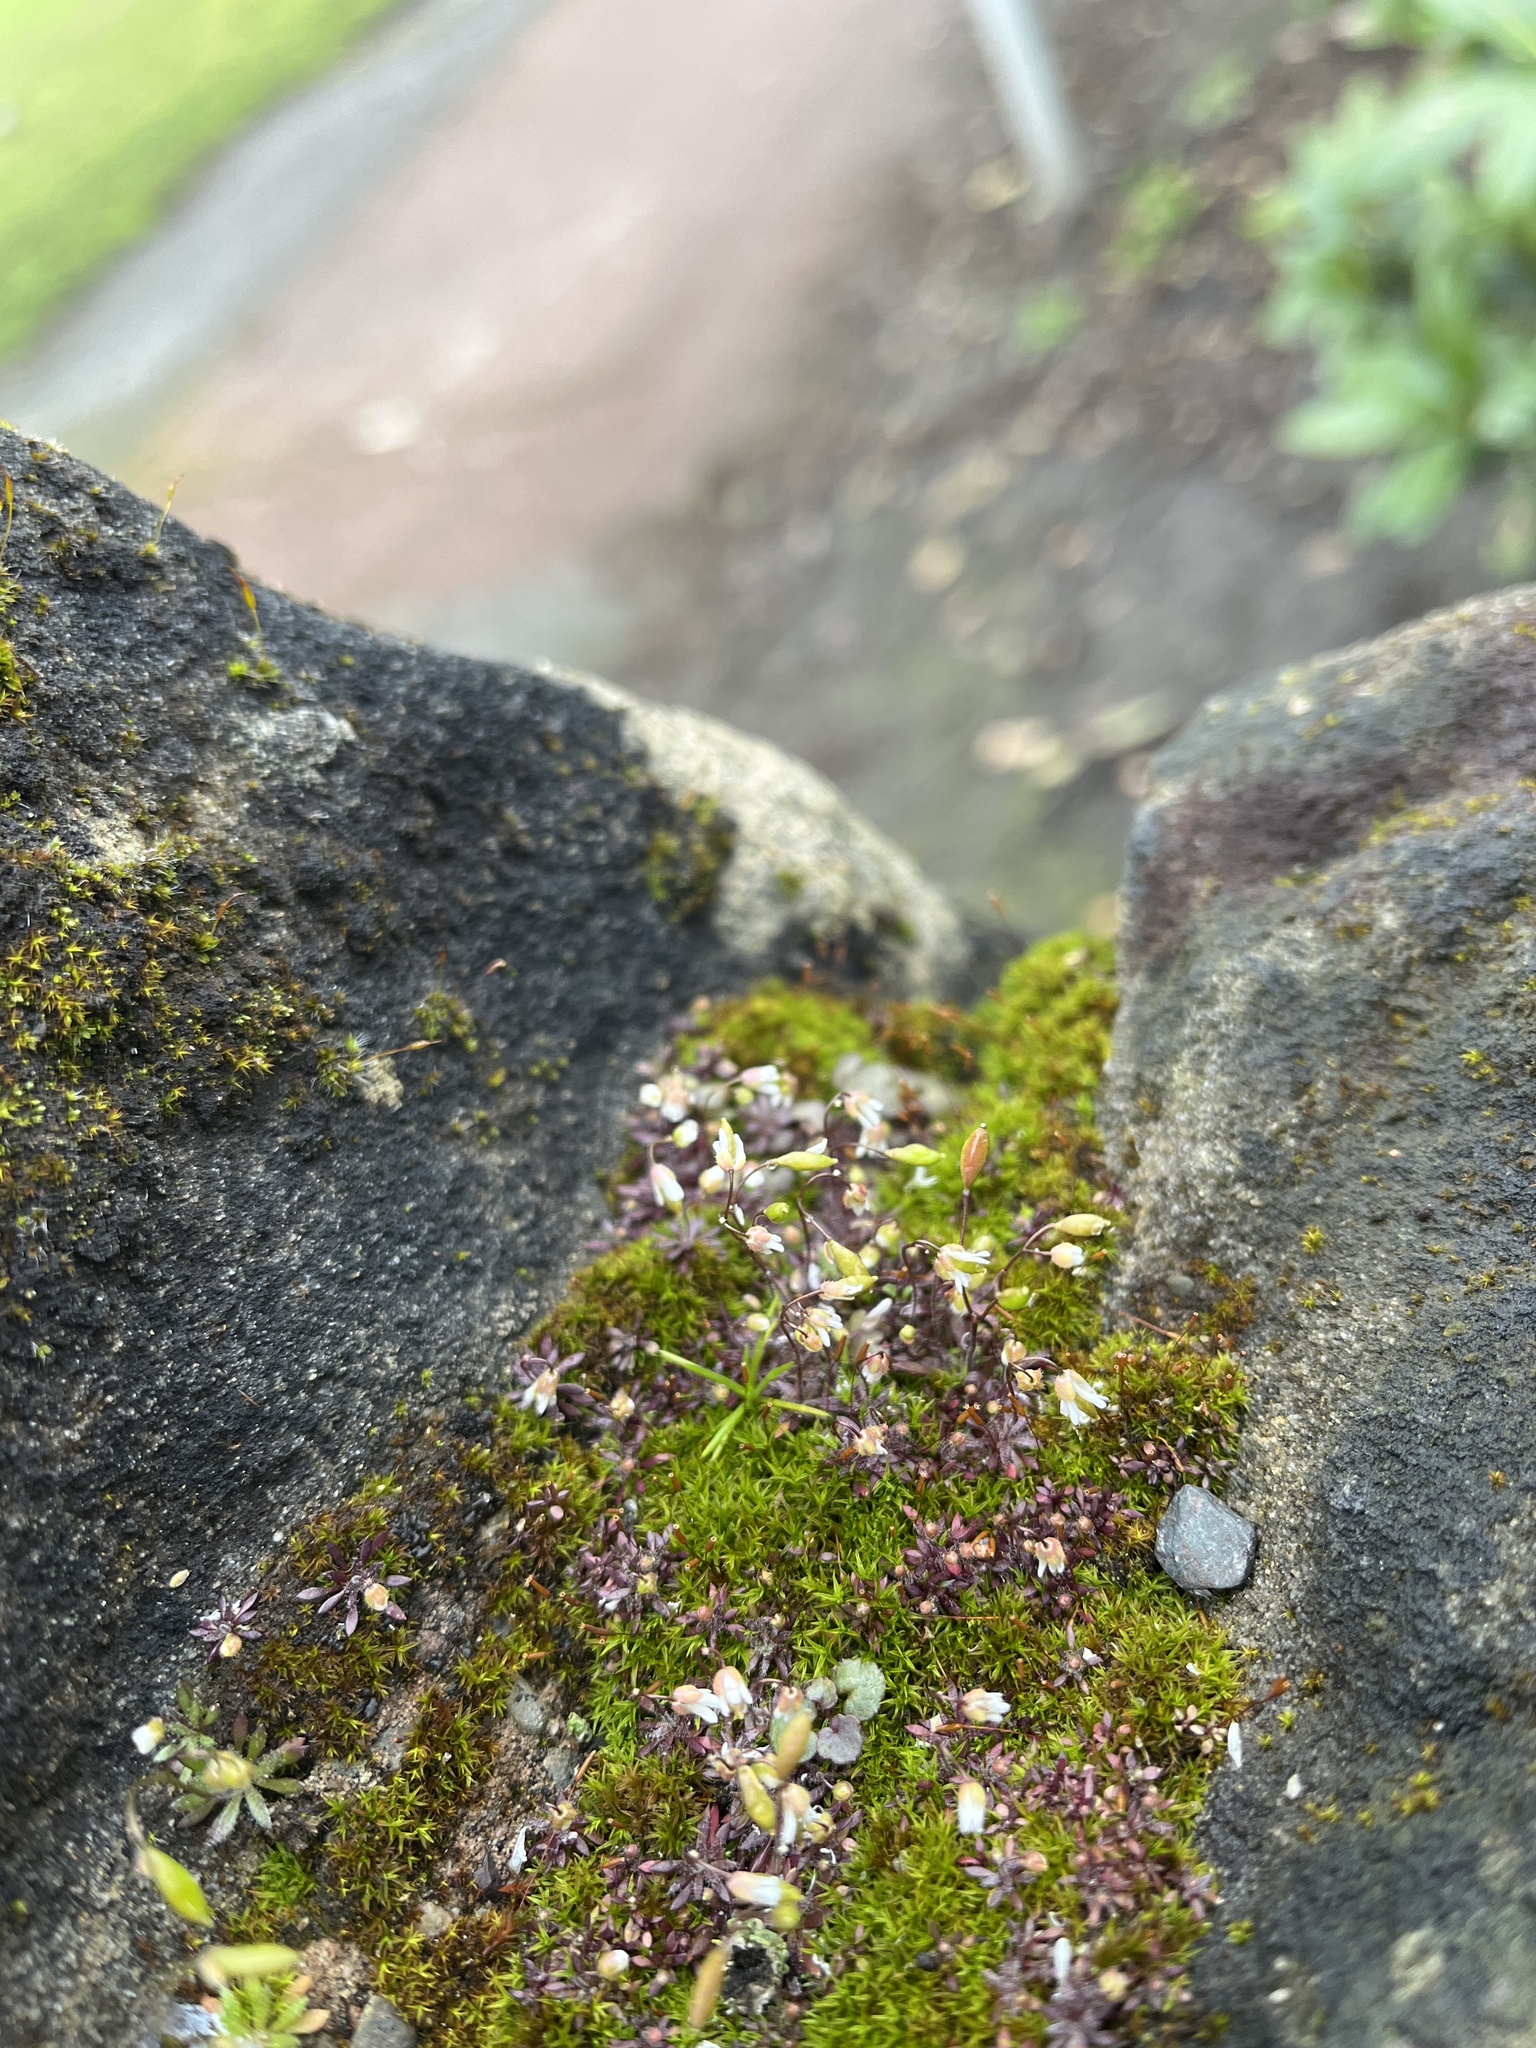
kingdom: Plantae
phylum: Tracheophyta
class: Magnoliopsida
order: Brassicales
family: Brassicaceae
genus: Draba
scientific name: Draba verna
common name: Spring draba
